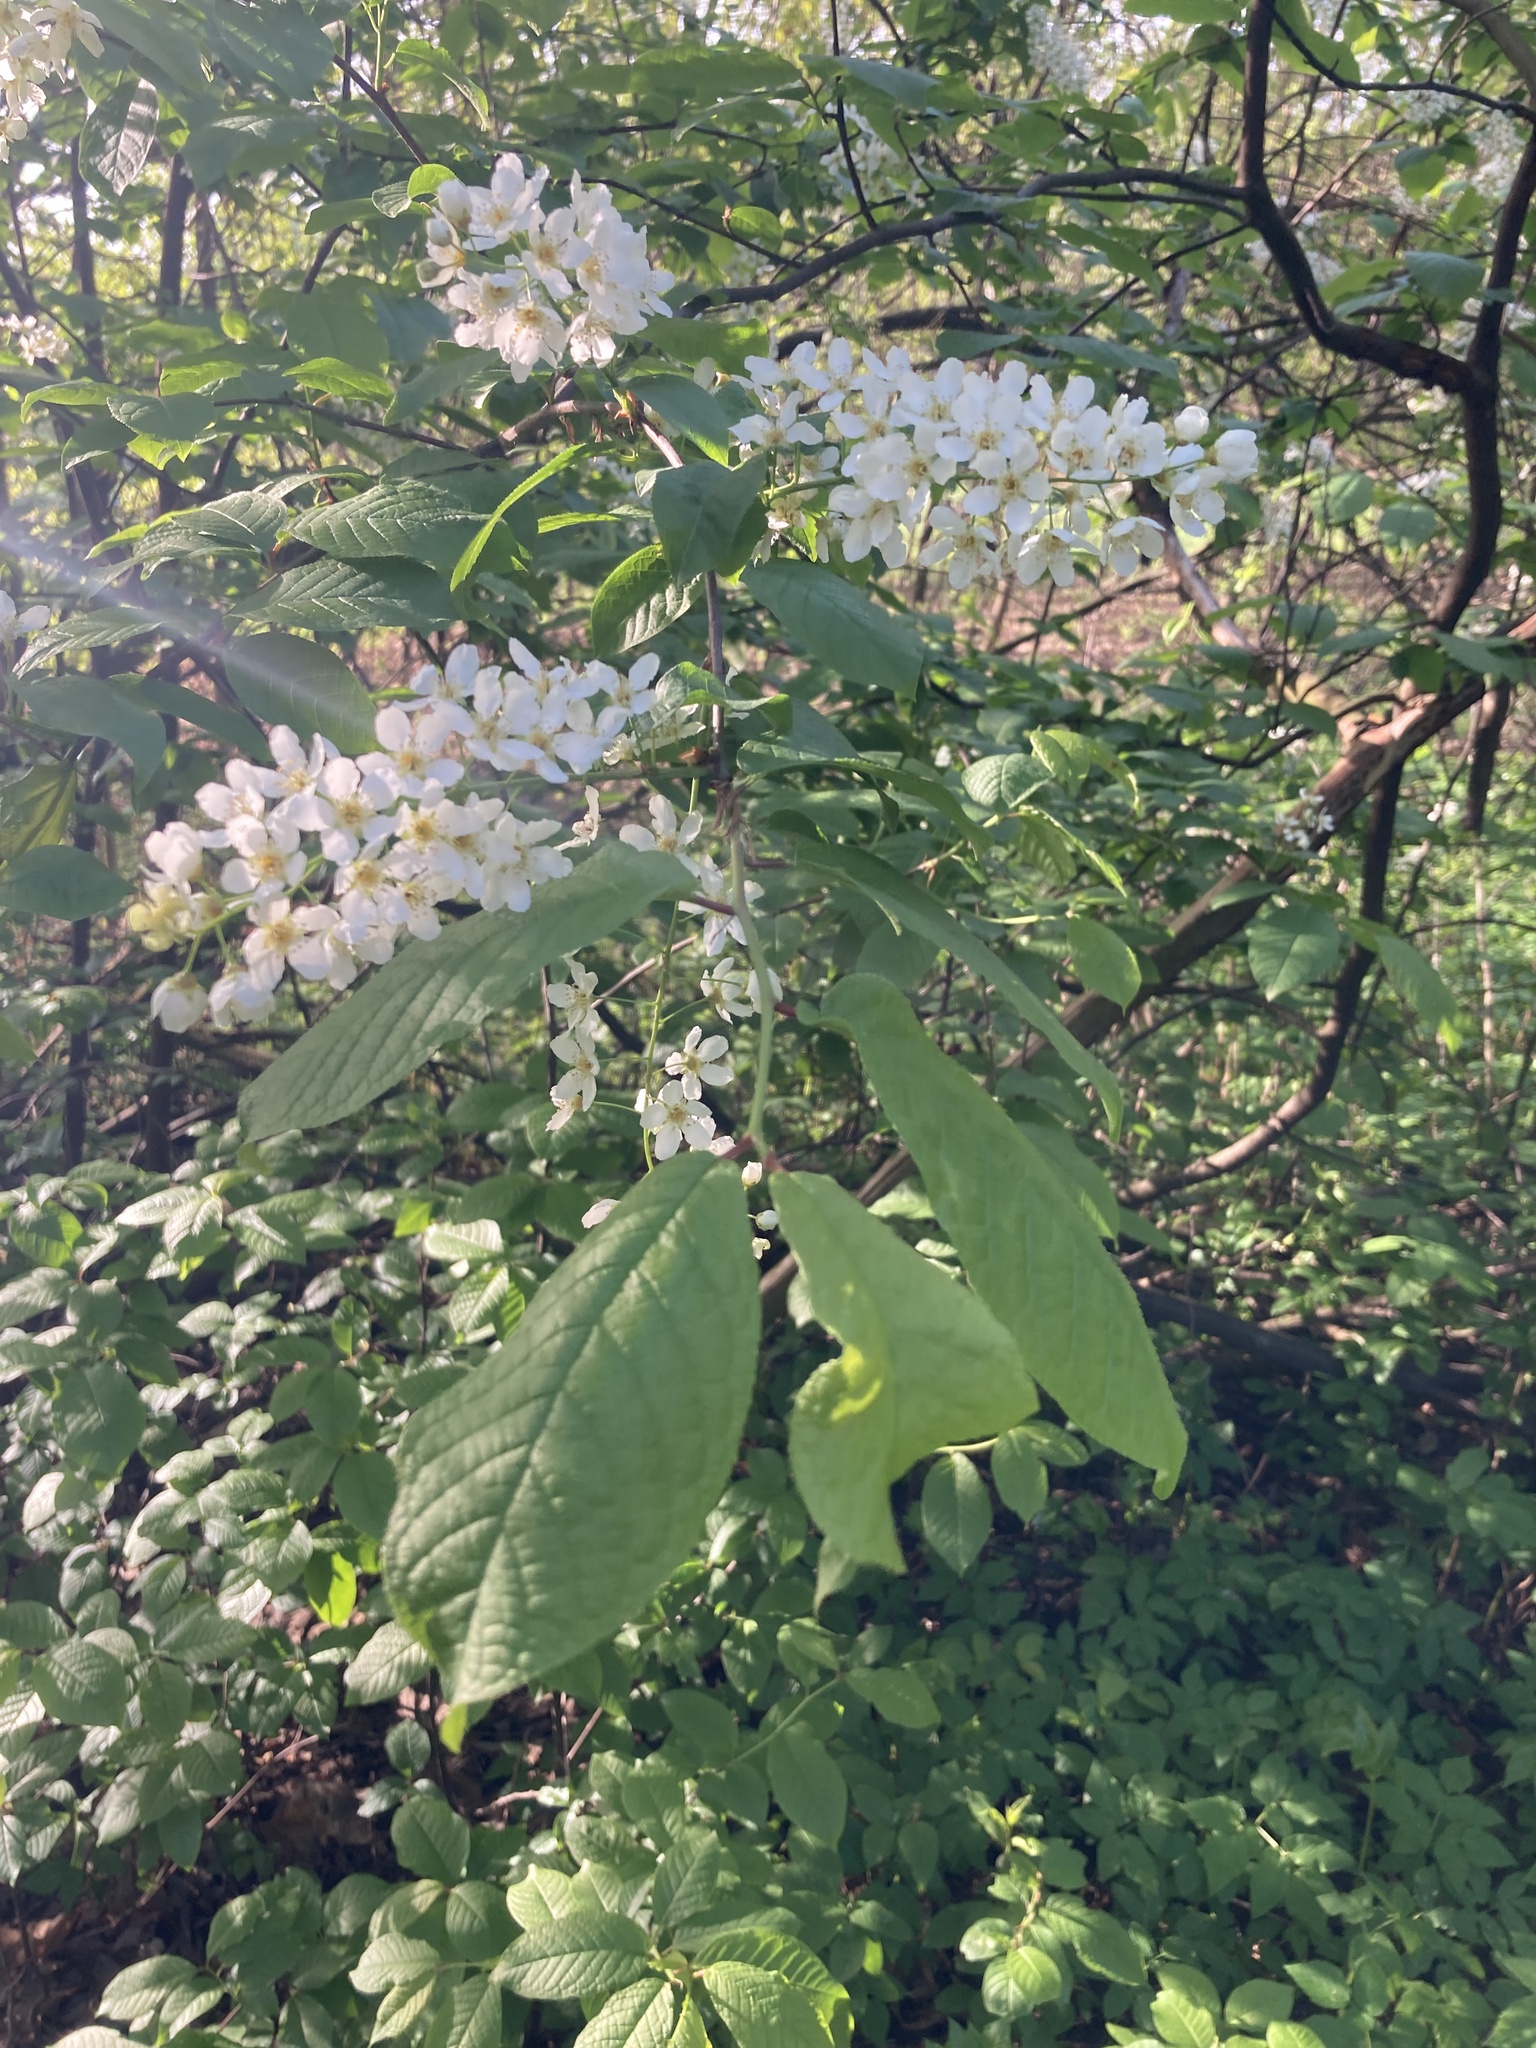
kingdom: Plantae
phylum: Tracheophyta
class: Magnoliopsida
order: Rosales
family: Rosaceae
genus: Prunus
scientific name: Prunus padus
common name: Bird cherry
